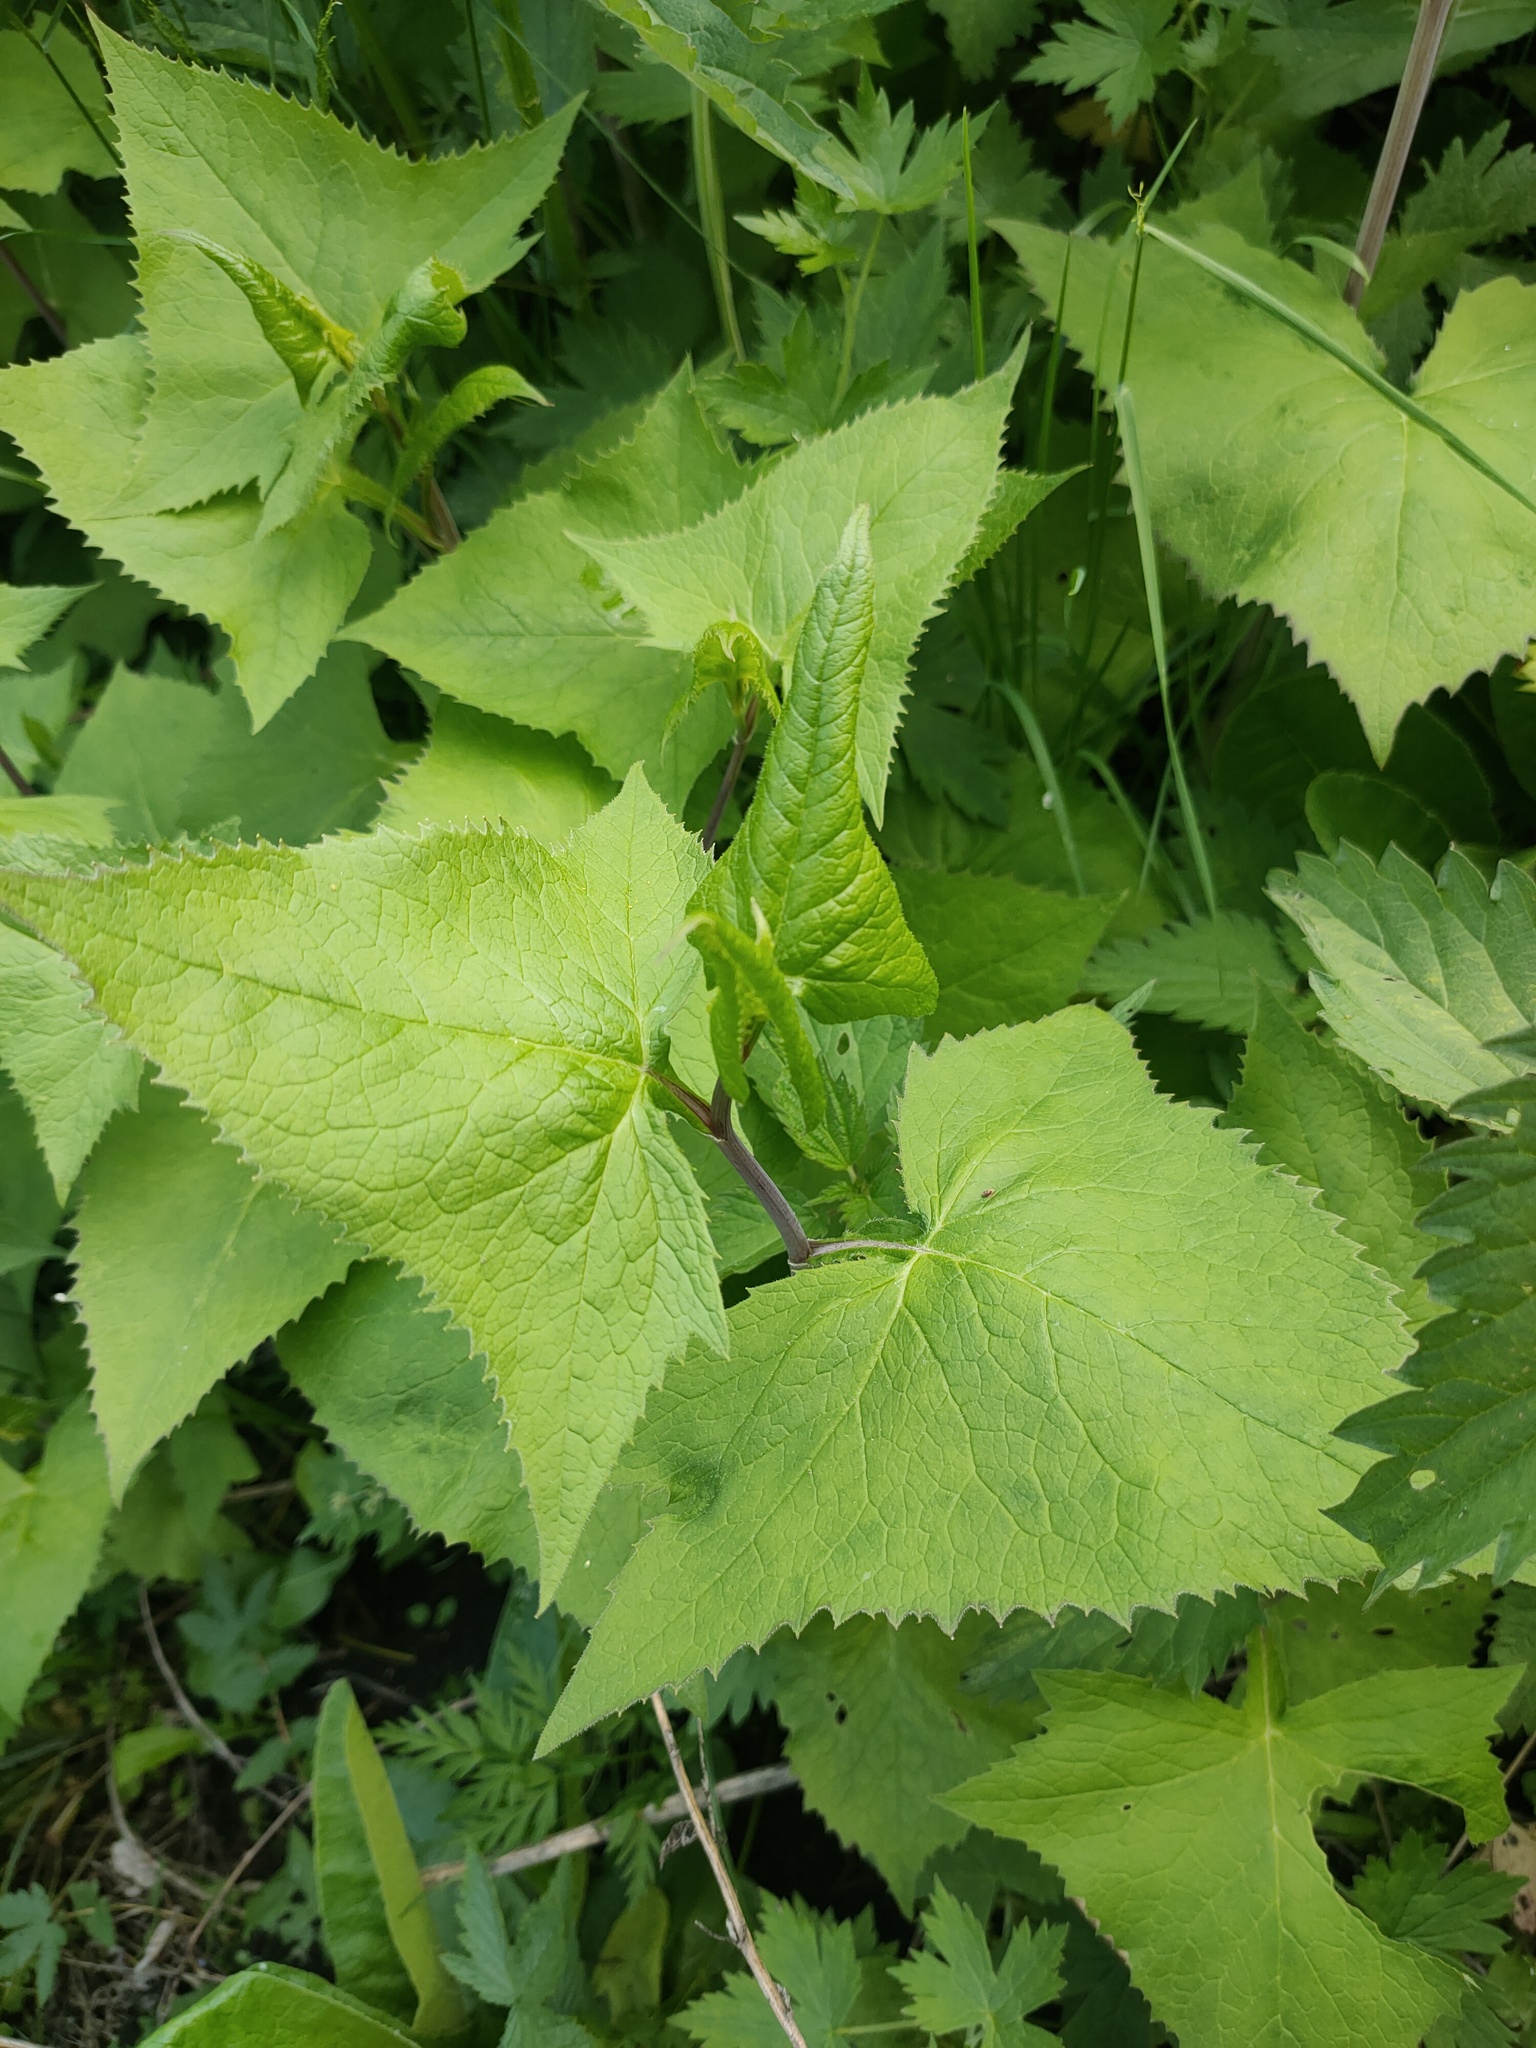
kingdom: Plantae
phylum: Tracheophyta
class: Magnoliopsida
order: Asterales
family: Asteraceae
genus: Parasenecio
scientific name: Parasenecio hastatus
